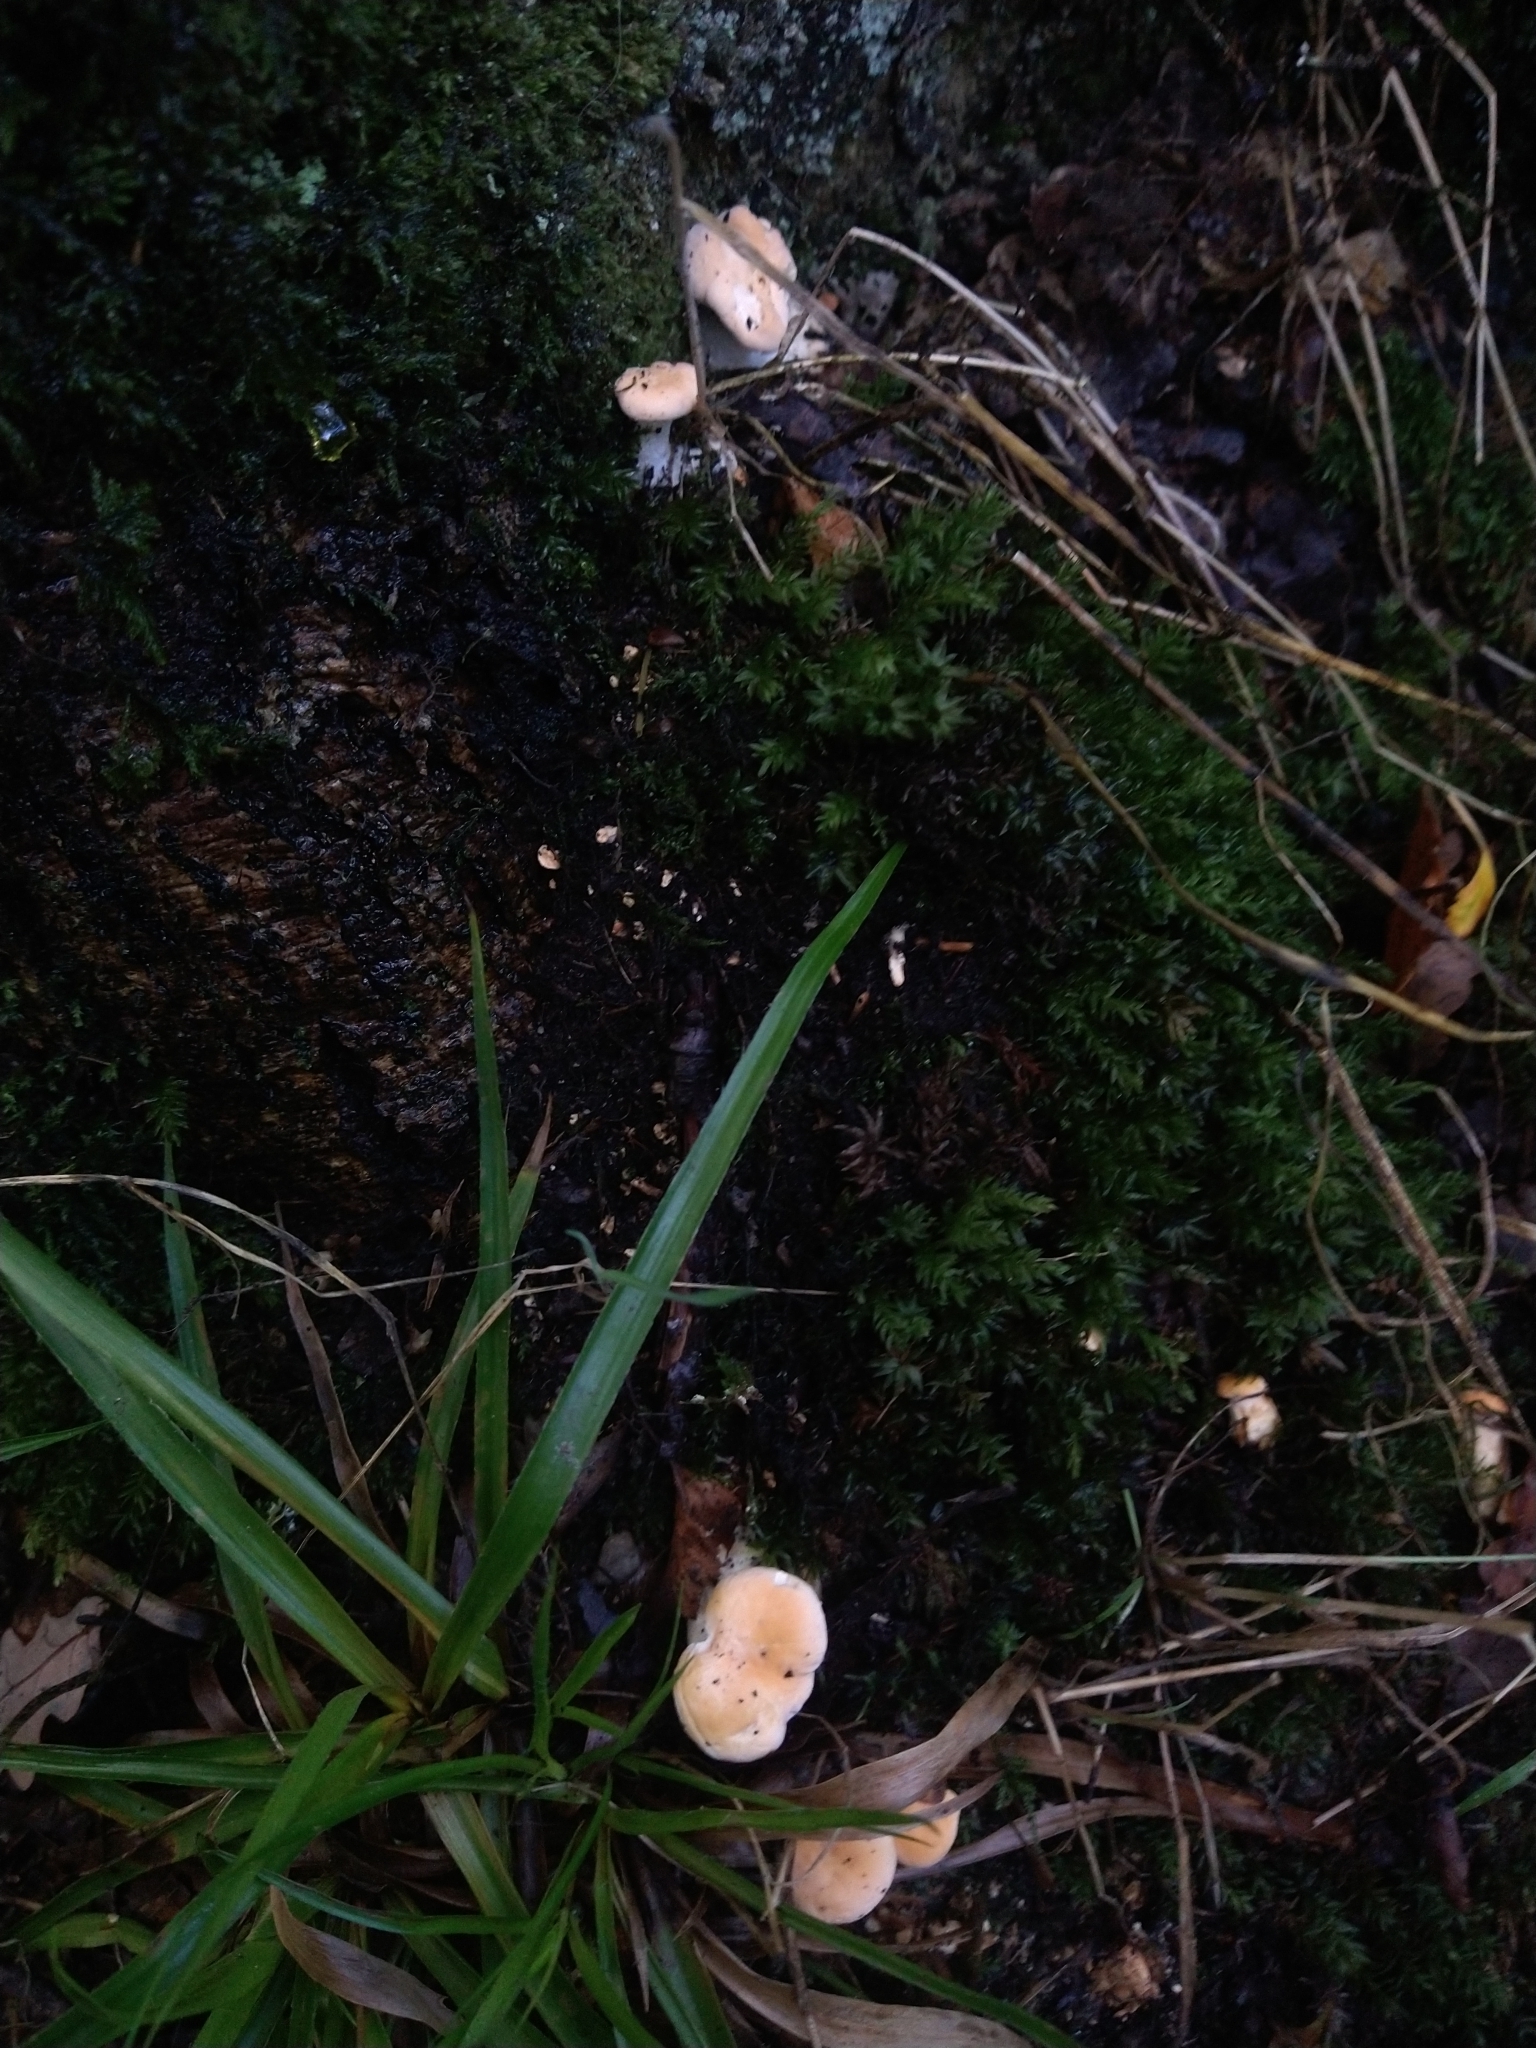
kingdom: Fungi
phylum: Basidiomycota
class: Agaricomycetes
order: Cantharellales
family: Hydnaceae
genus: Hydnum
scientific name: Hydnum repandum
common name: Wood hedgehog
